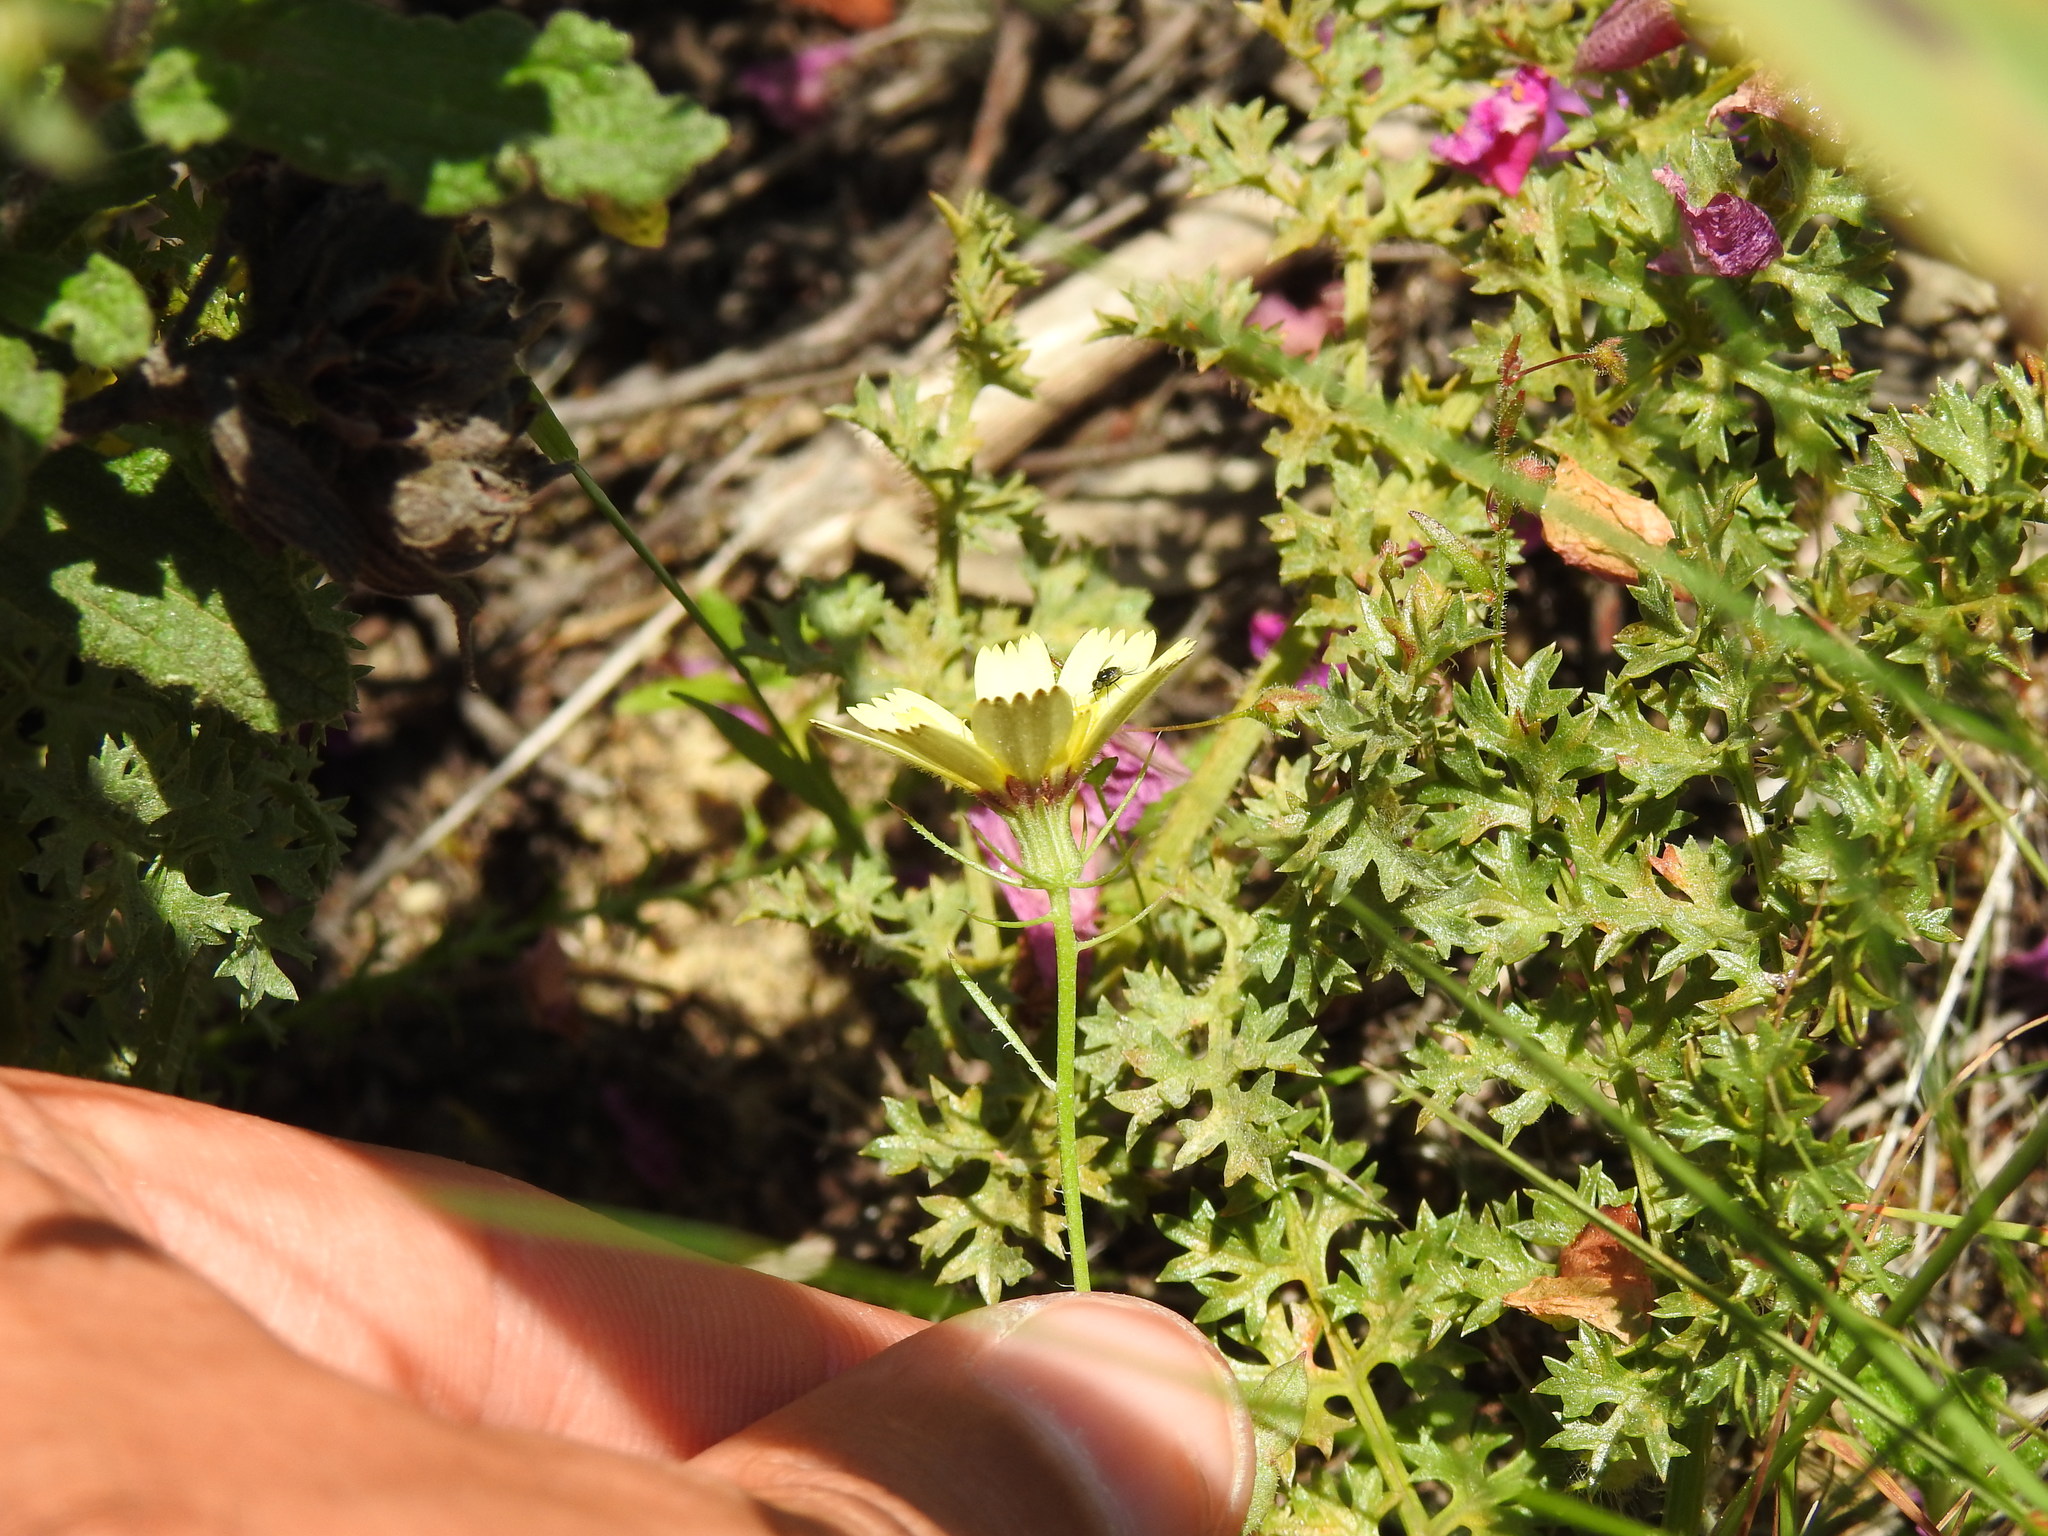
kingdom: Plantae
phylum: Tracheophyta
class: Magnoliopsida
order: Asterales
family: Asteraceae
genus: Tolpis
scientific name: Tolpis barbata
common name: Yellow hawkweed
